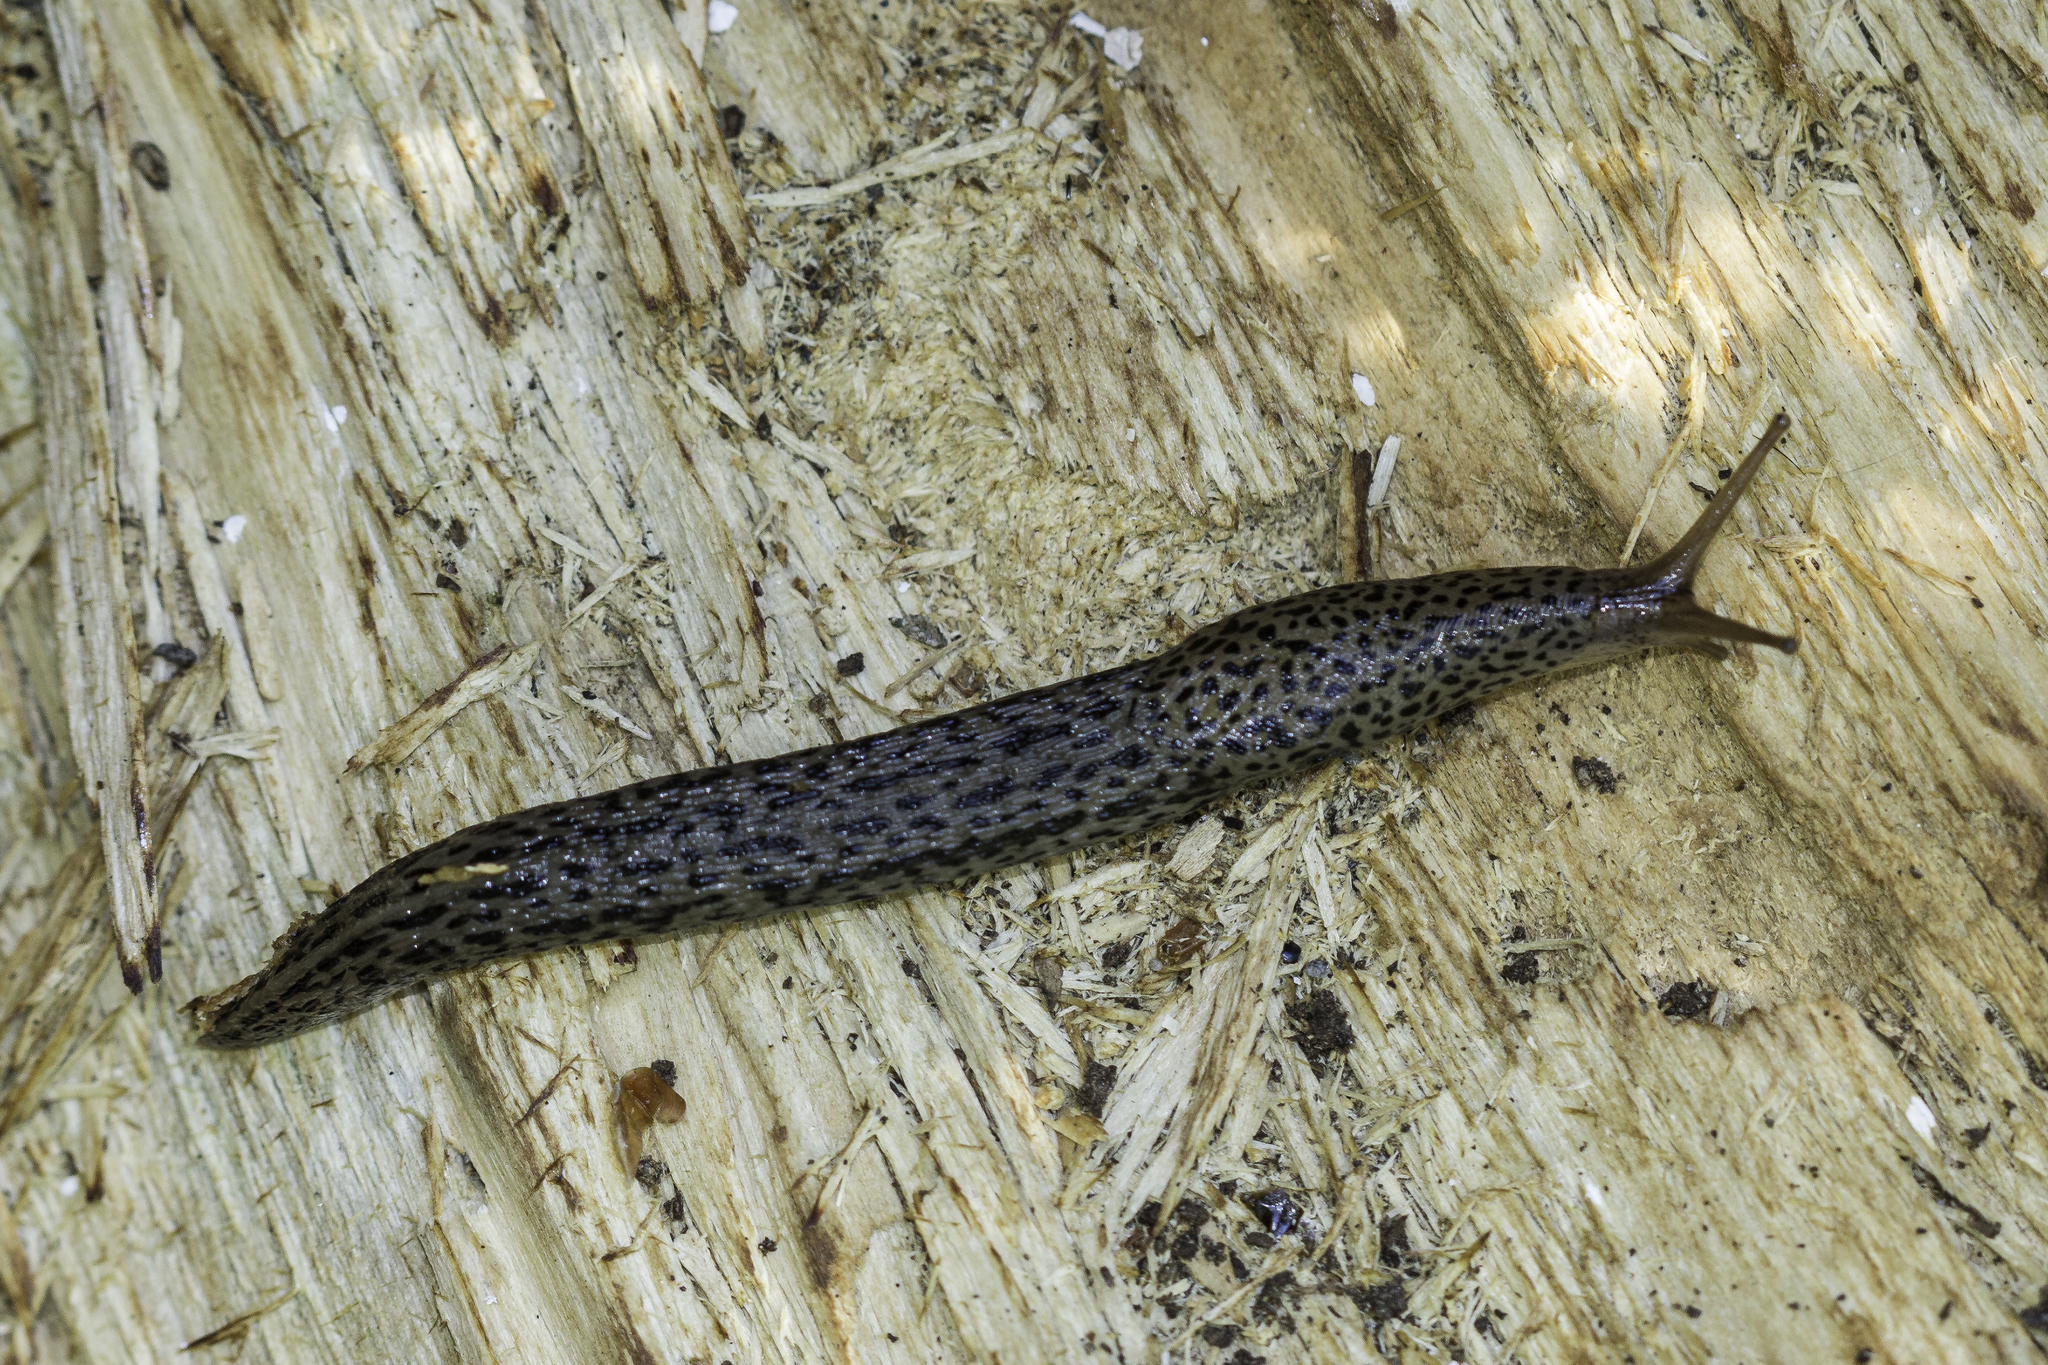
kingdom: Animalia
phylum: Mollusca
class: Gastropoda
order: Stylommatophora
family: Limacidae
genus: Limax
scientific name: Limax maximus
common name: Great grey slug
